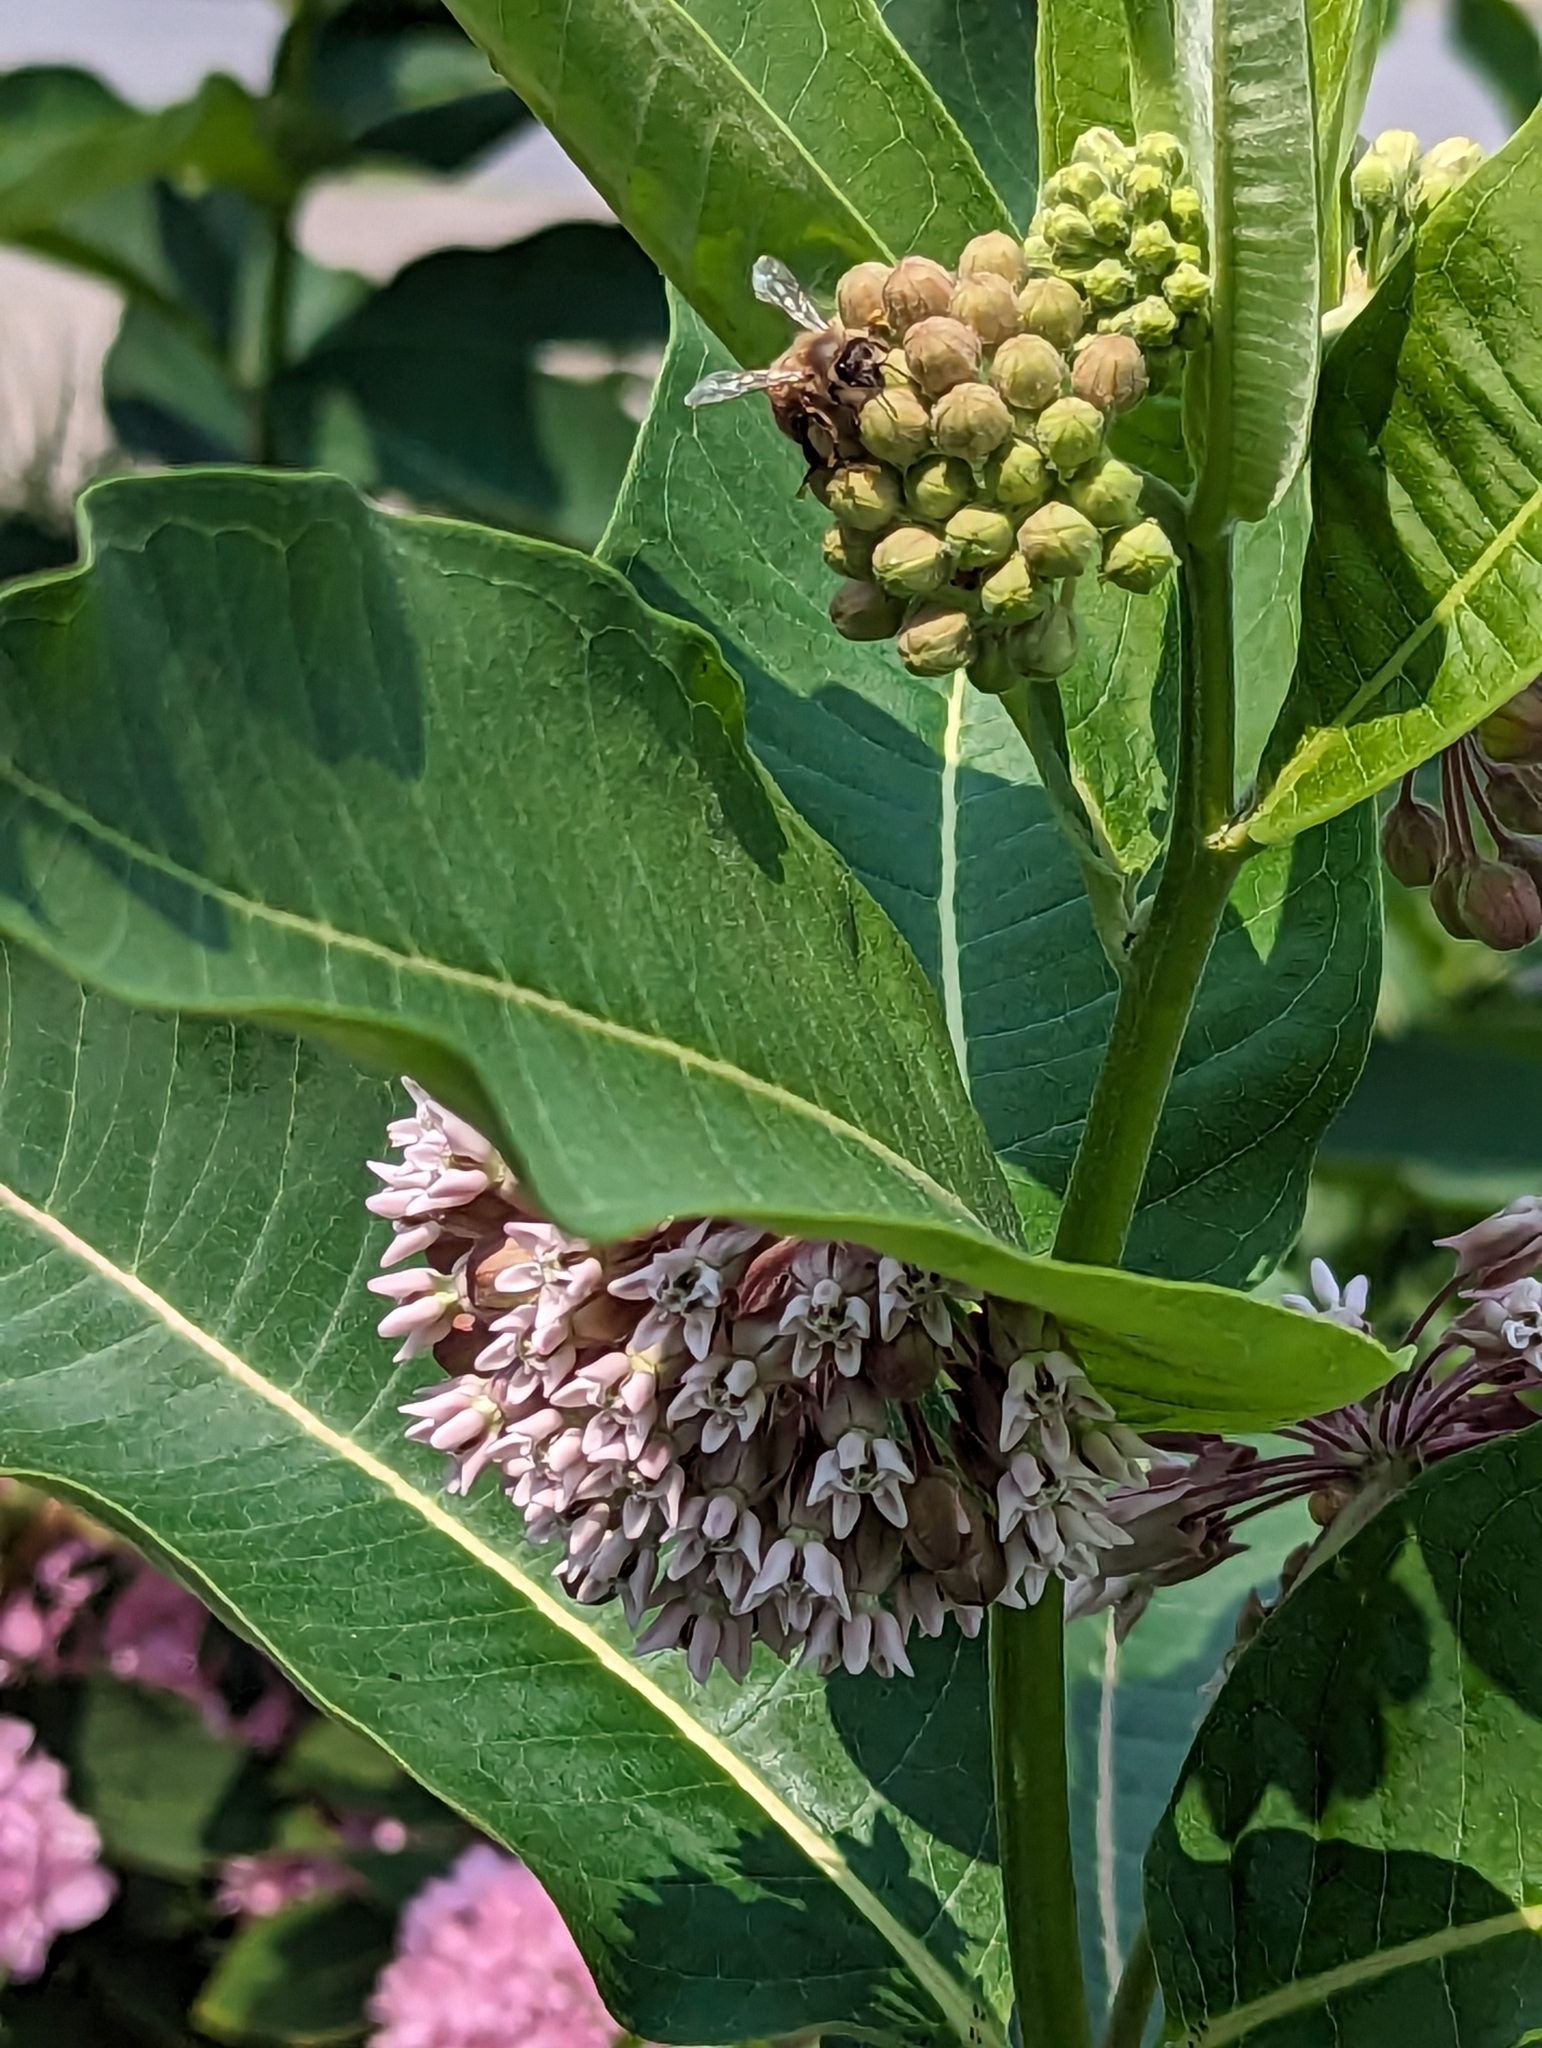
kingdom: Plantae
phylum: Tracheophyta
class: Magnoliopsida
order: Gentianales
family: Apocynaceae
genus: Asclepias
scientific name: Asclepias syriaca
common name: Common milkweed
